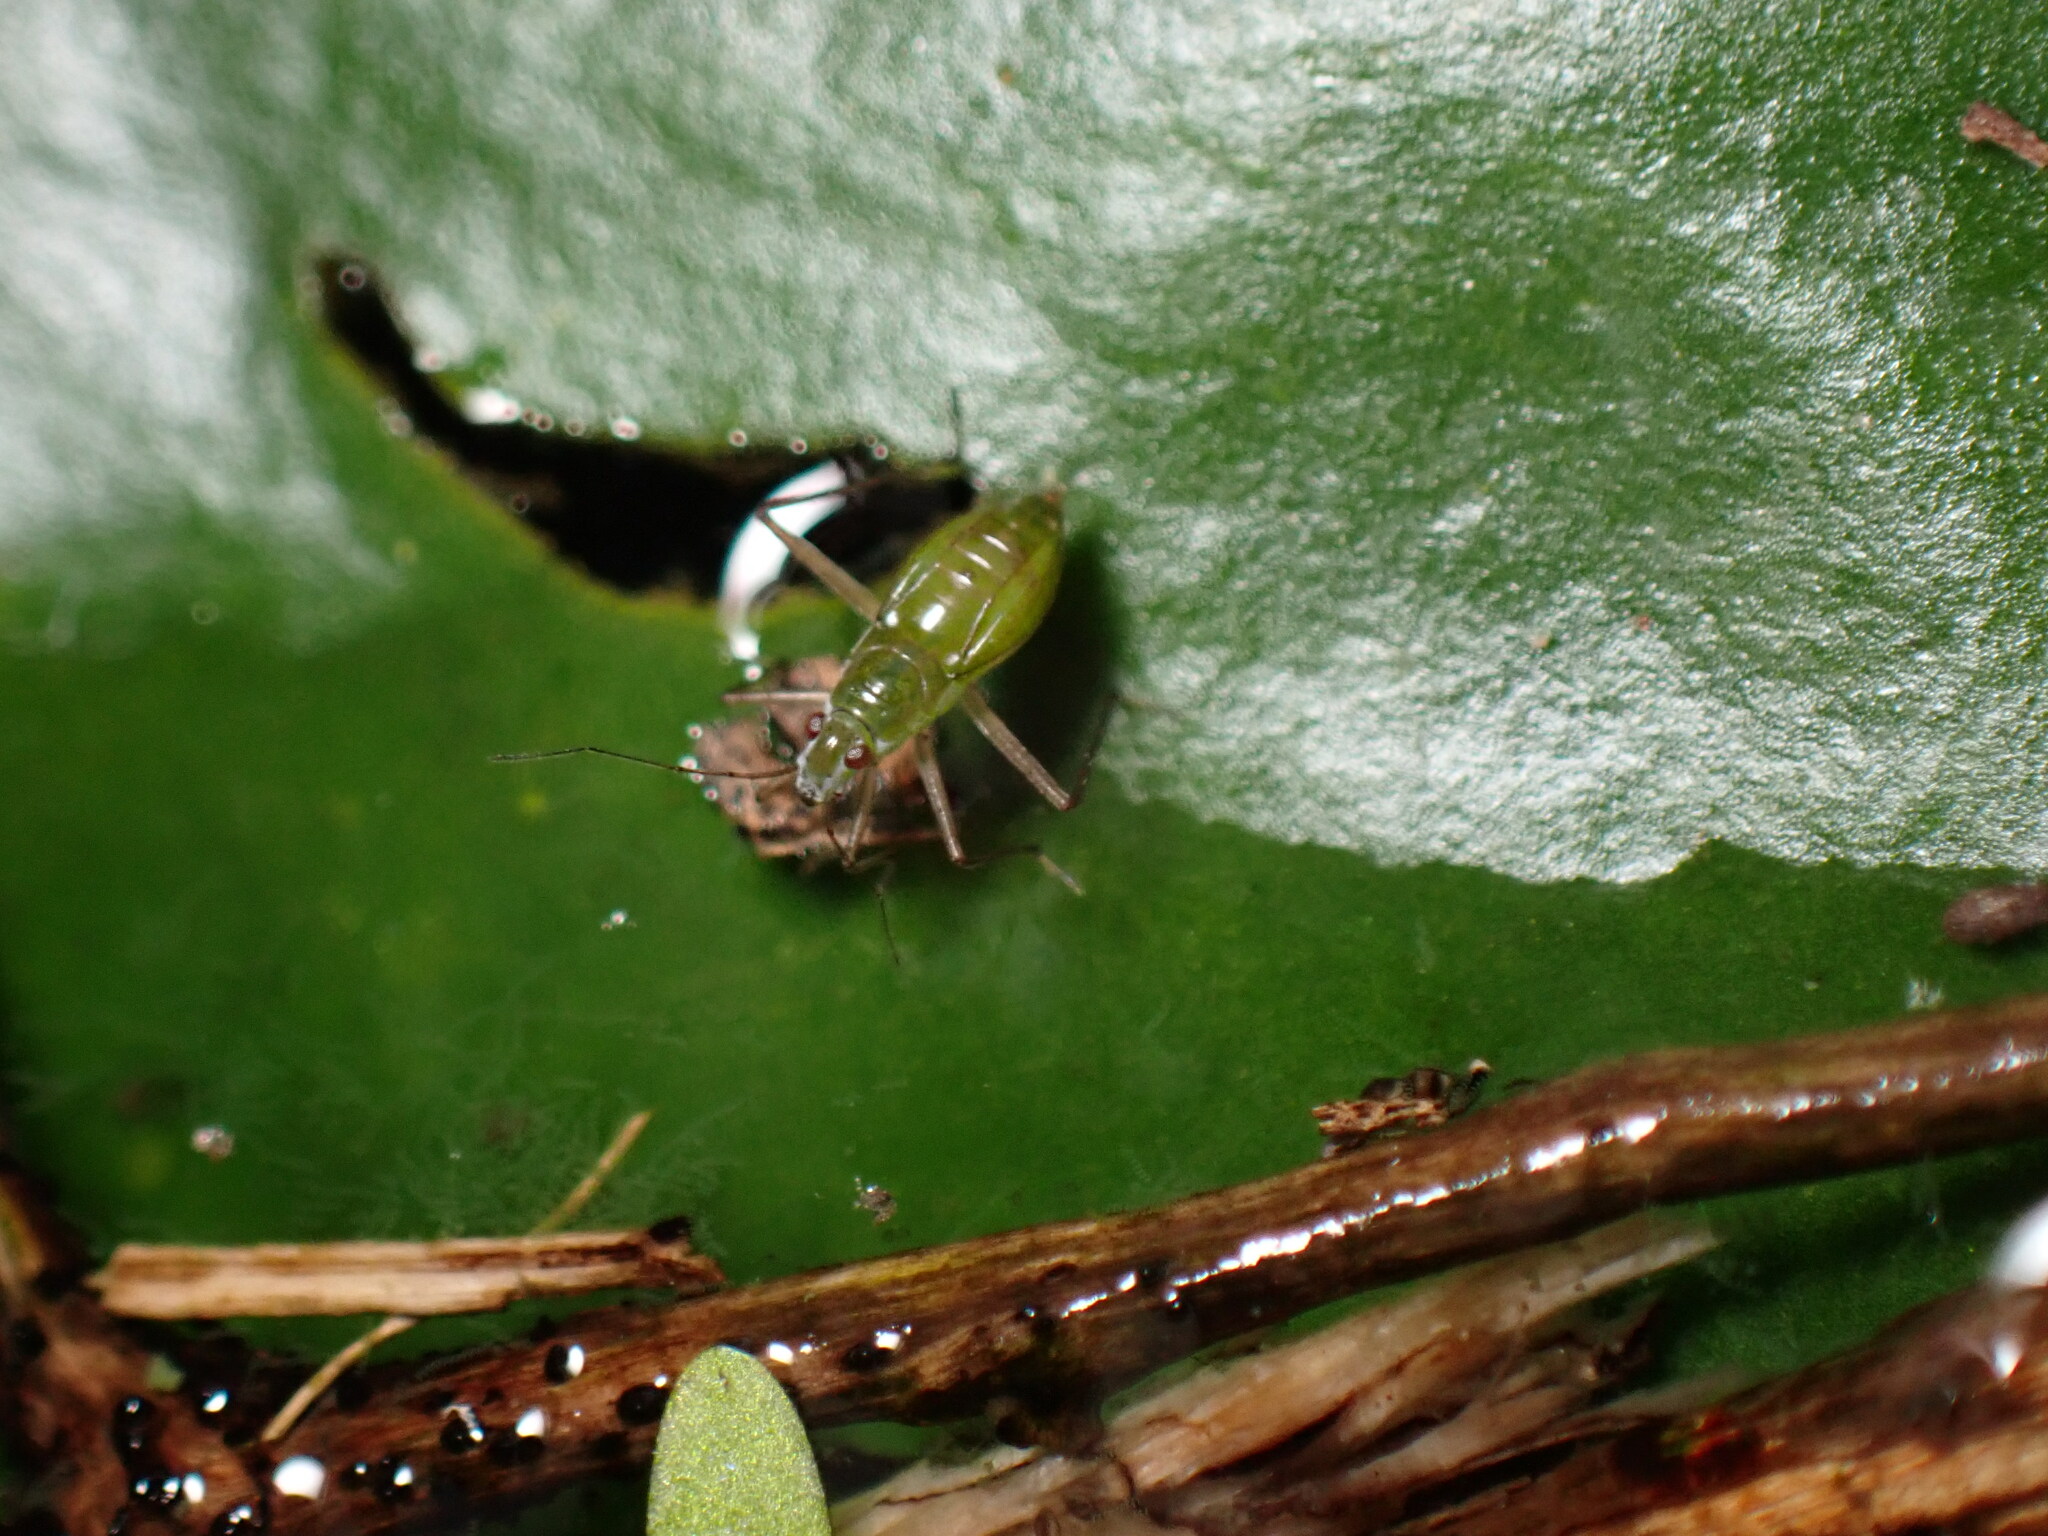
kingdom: Animalia
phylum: Arthropoda
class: Insecta
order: Hemiptera
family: Mesoveliidae
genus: Mesovelia
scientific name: Mesovelia mulsanti
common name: Water treaders
